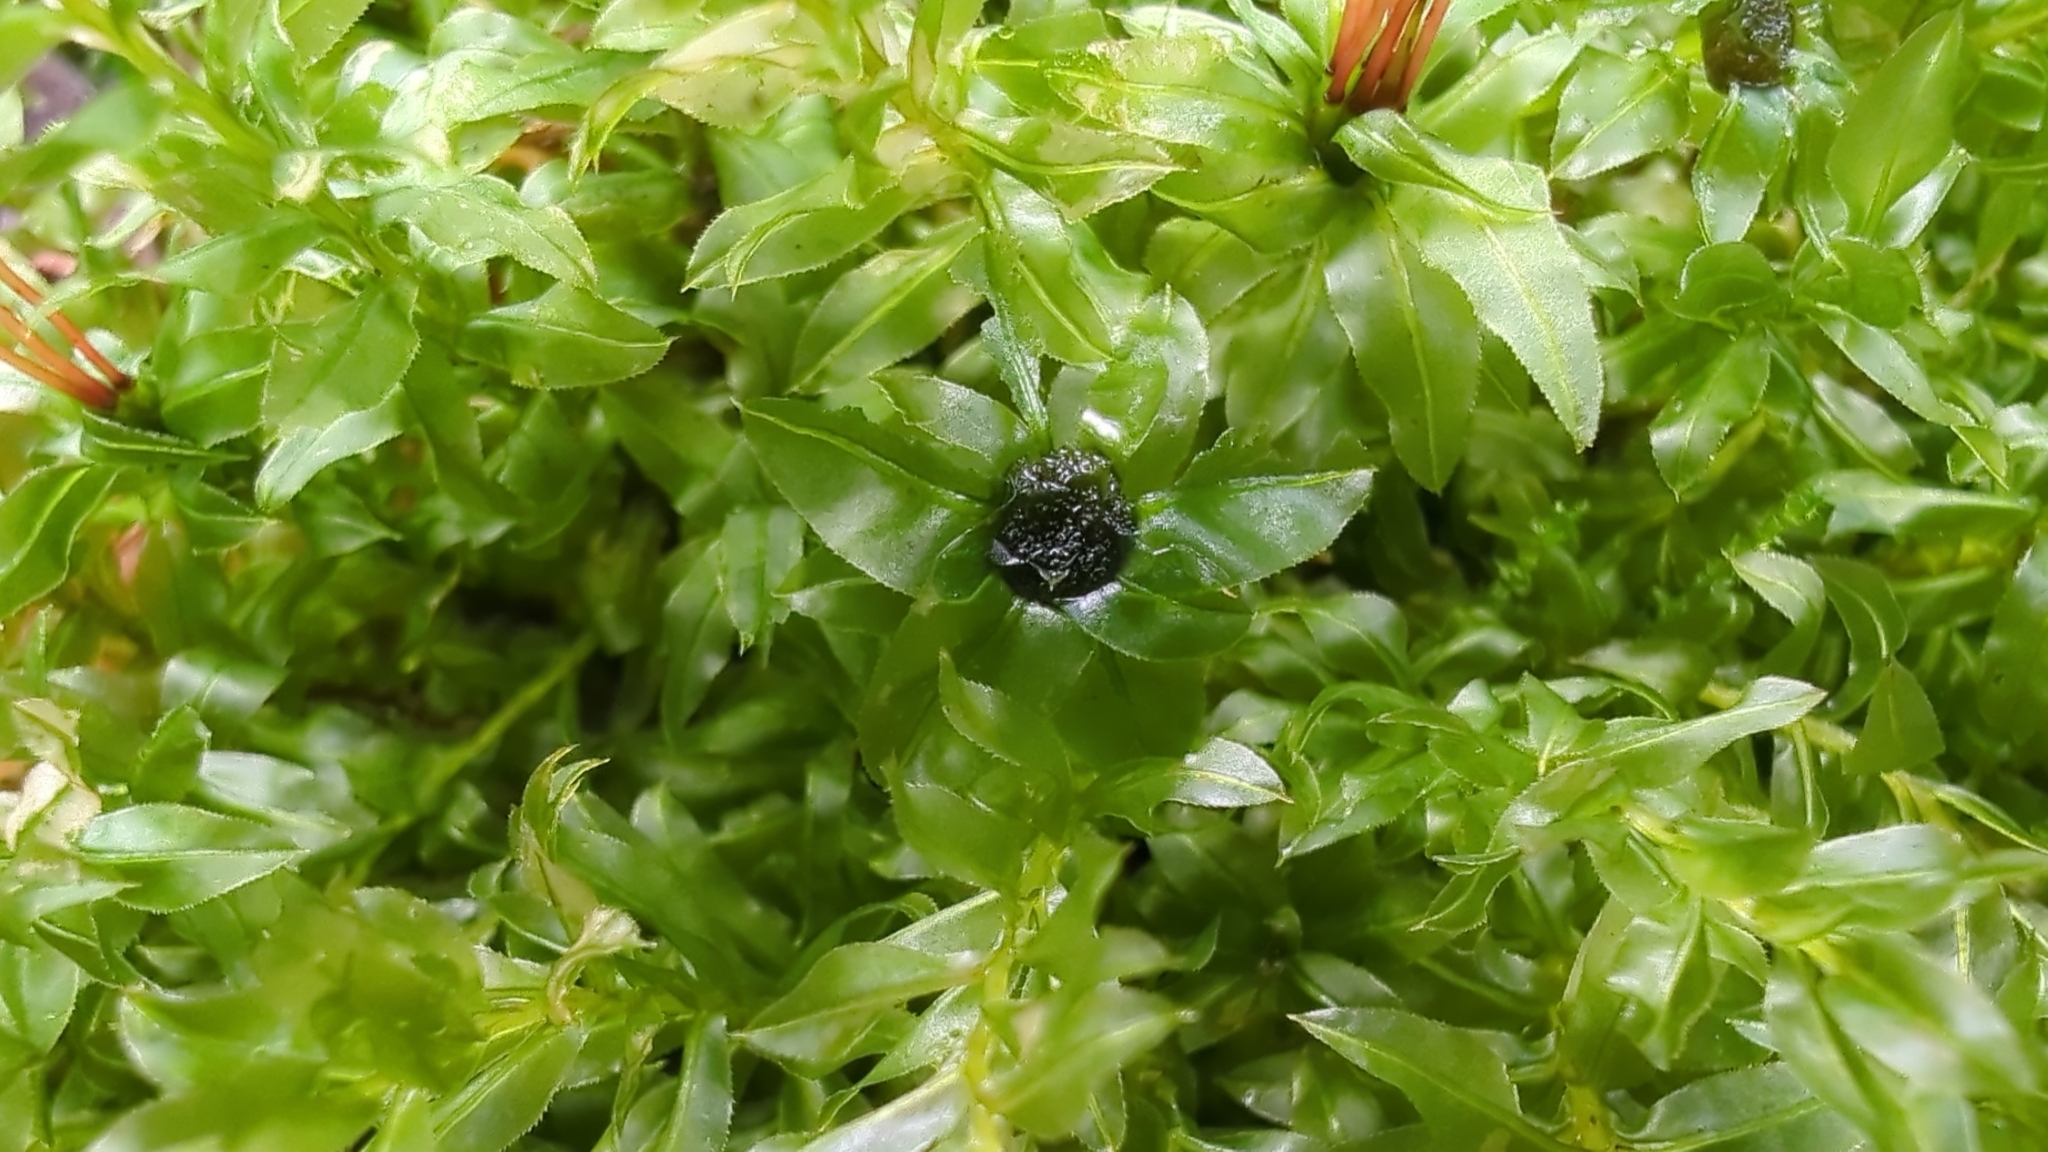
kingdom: Plantae
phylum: Bryophyta
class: Bryopsida
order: Bryales
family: Mniaceae
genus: Plagiomnium
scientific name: Plagiomnium insigne
